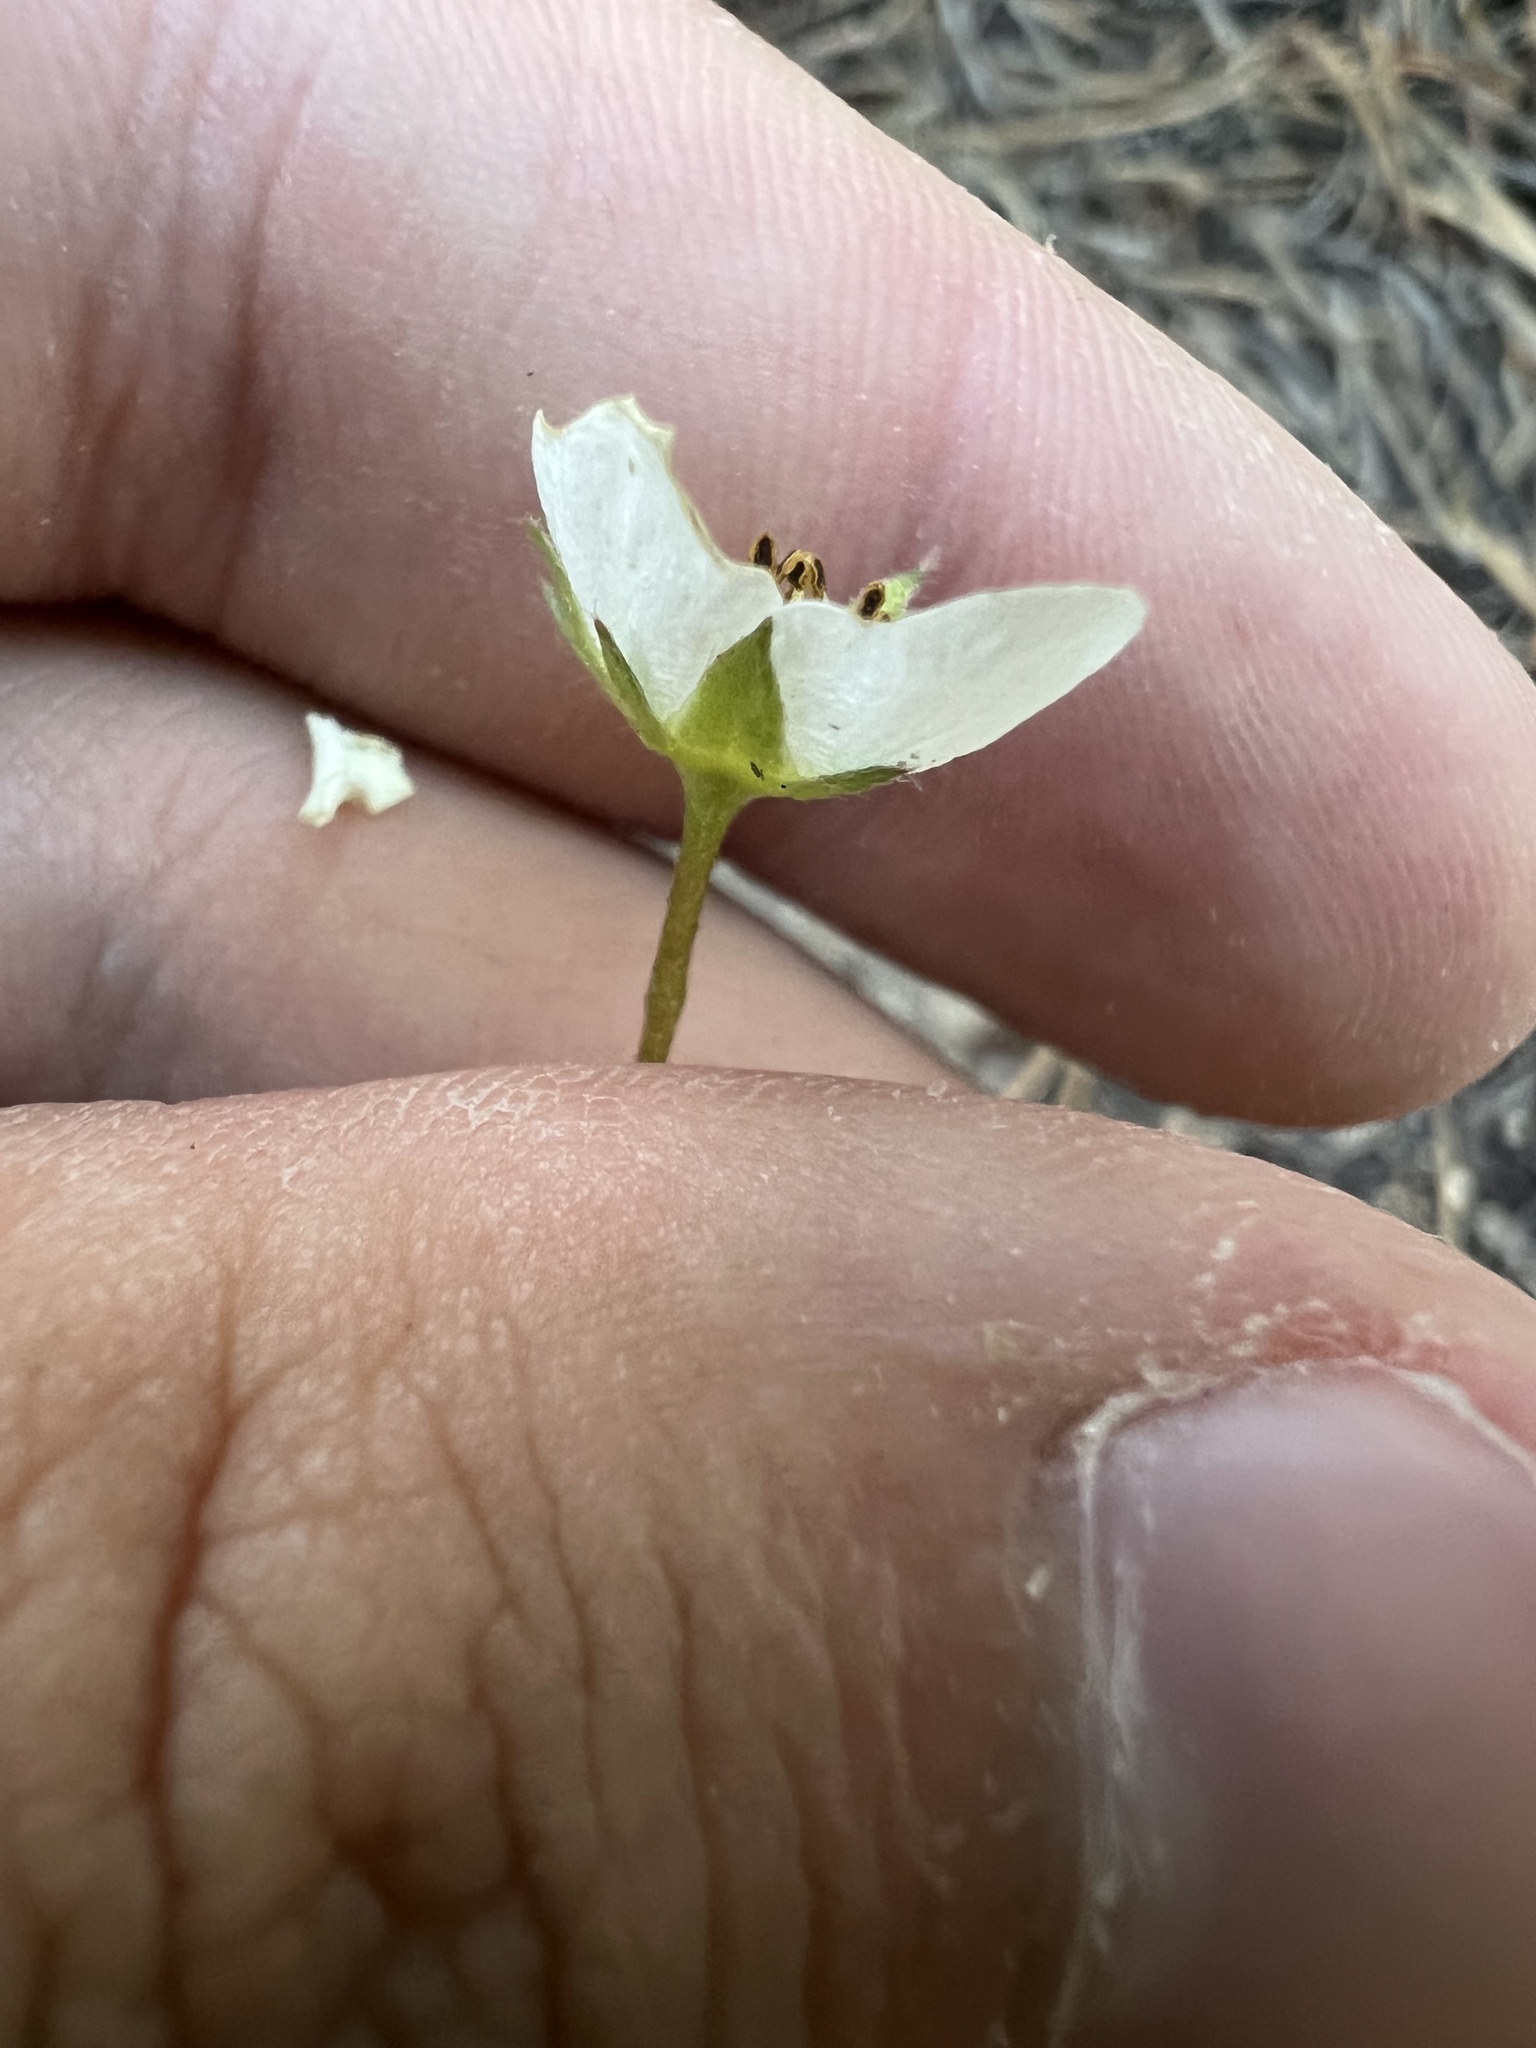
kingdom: Plantae
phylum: Tracheophyta
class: Magnoliopsida
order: Rosales
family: Rosaceae
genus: Fragaria
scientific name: Fragaria virginiana
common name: Thickleaved wild strawberry
